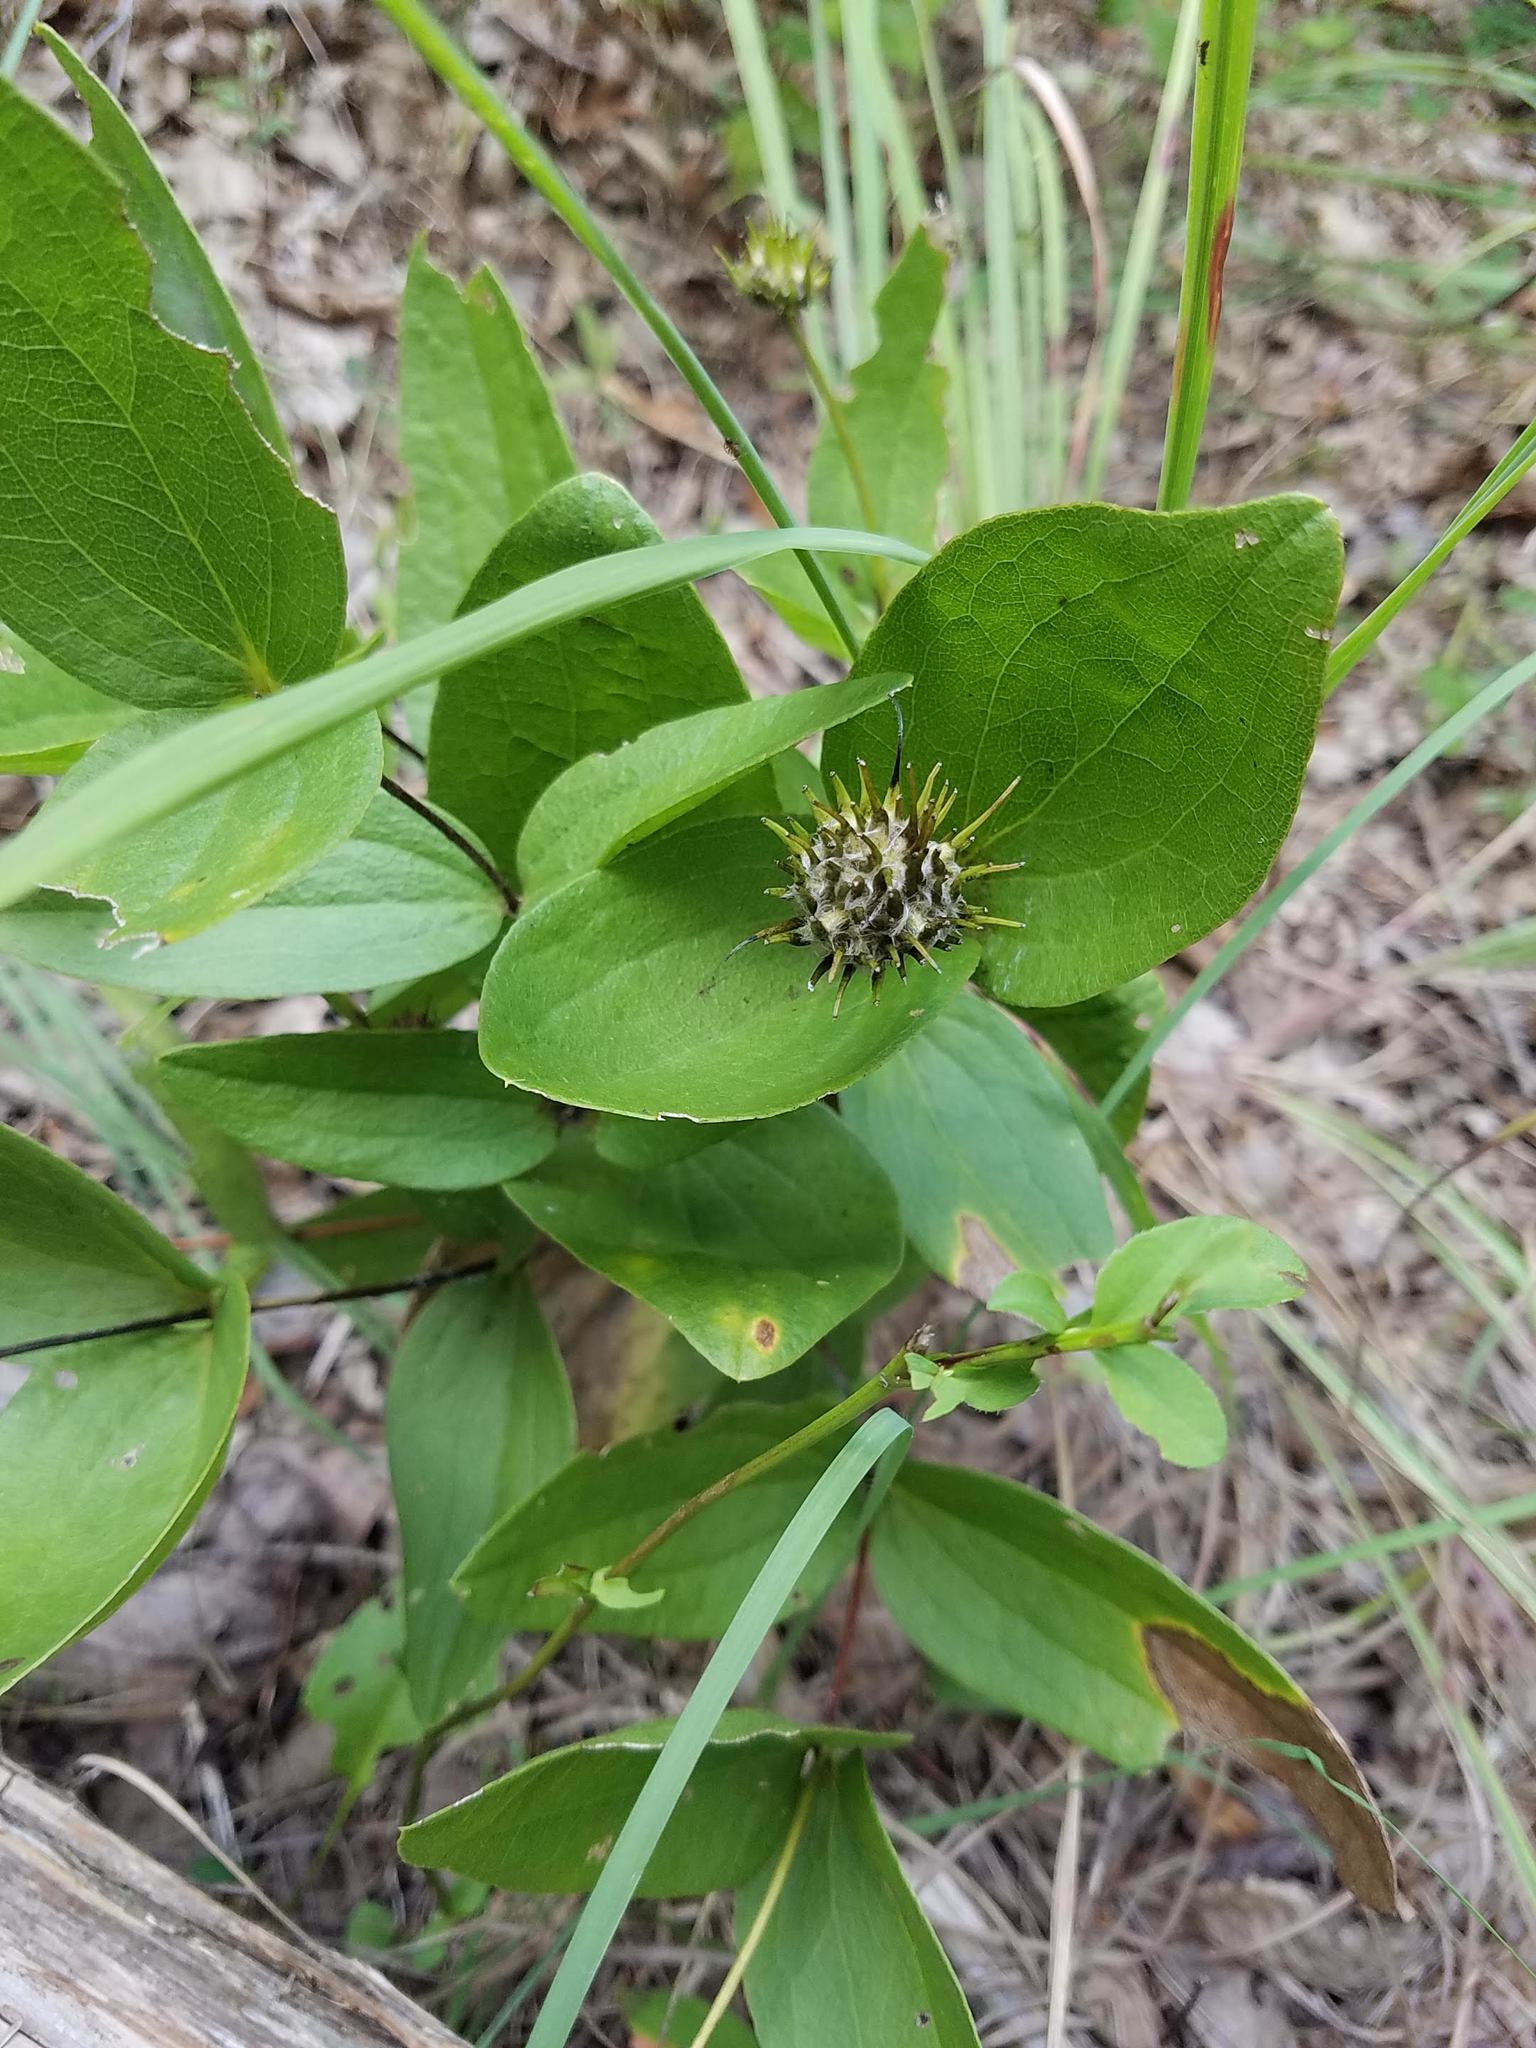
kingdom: Plantae
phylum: Tracheophyta
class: Magnoliopsida
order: Ranunculales
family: Ranunculaceae
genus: Clematis
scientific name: Clematis fremontii
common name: Fremont's clematis
